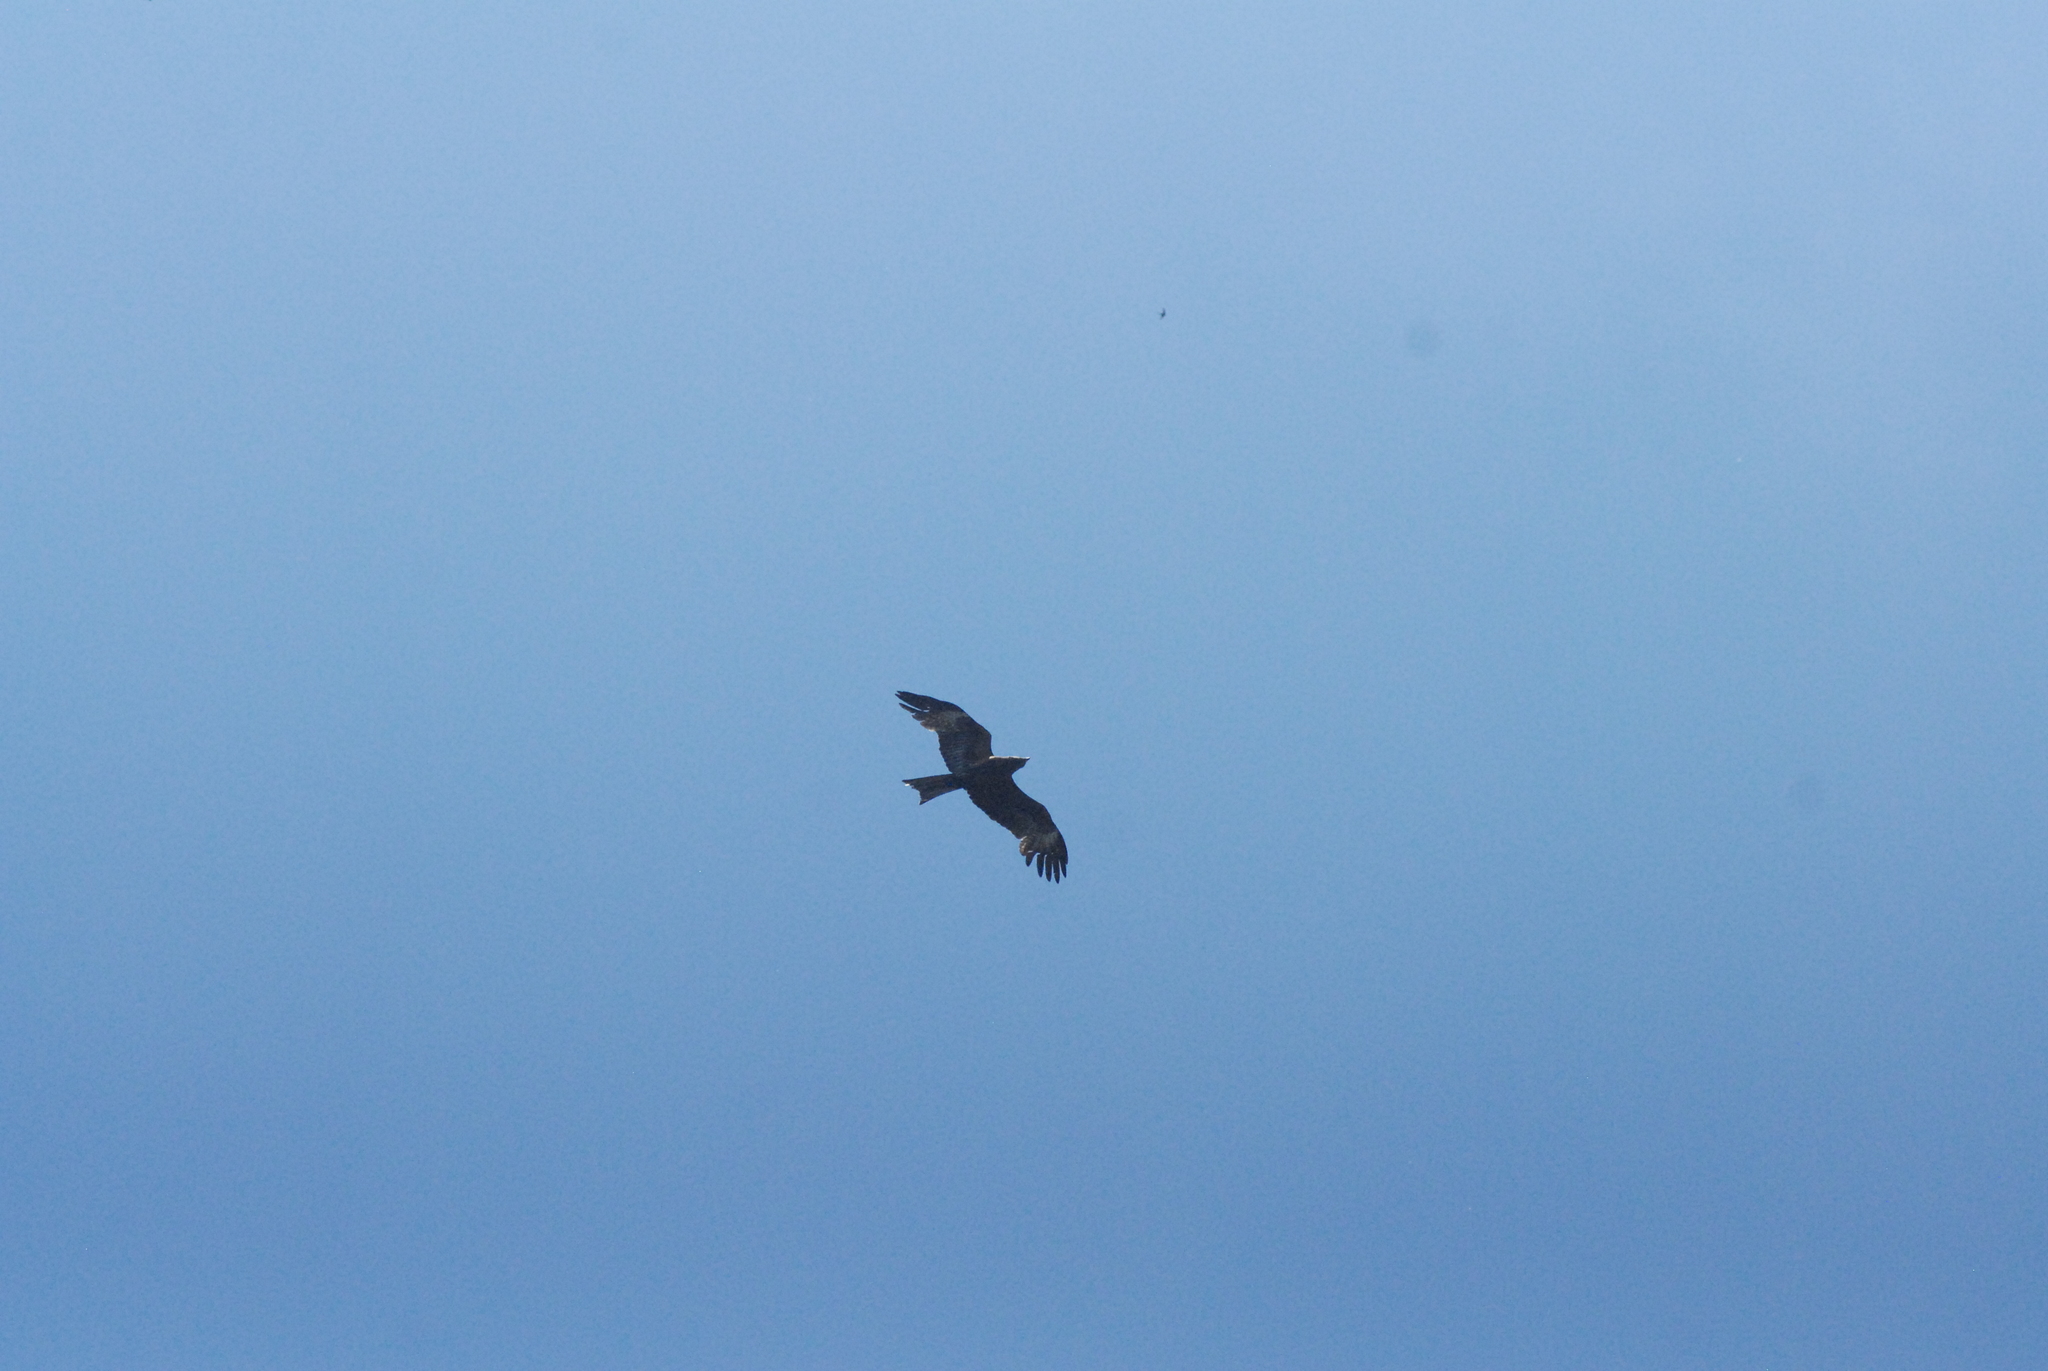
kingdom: Animalia
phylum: Chordata
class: Aves
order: Accipitriformes
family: Accipitridae
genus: Milvus
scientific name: Milvus migrans
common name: Black kite
